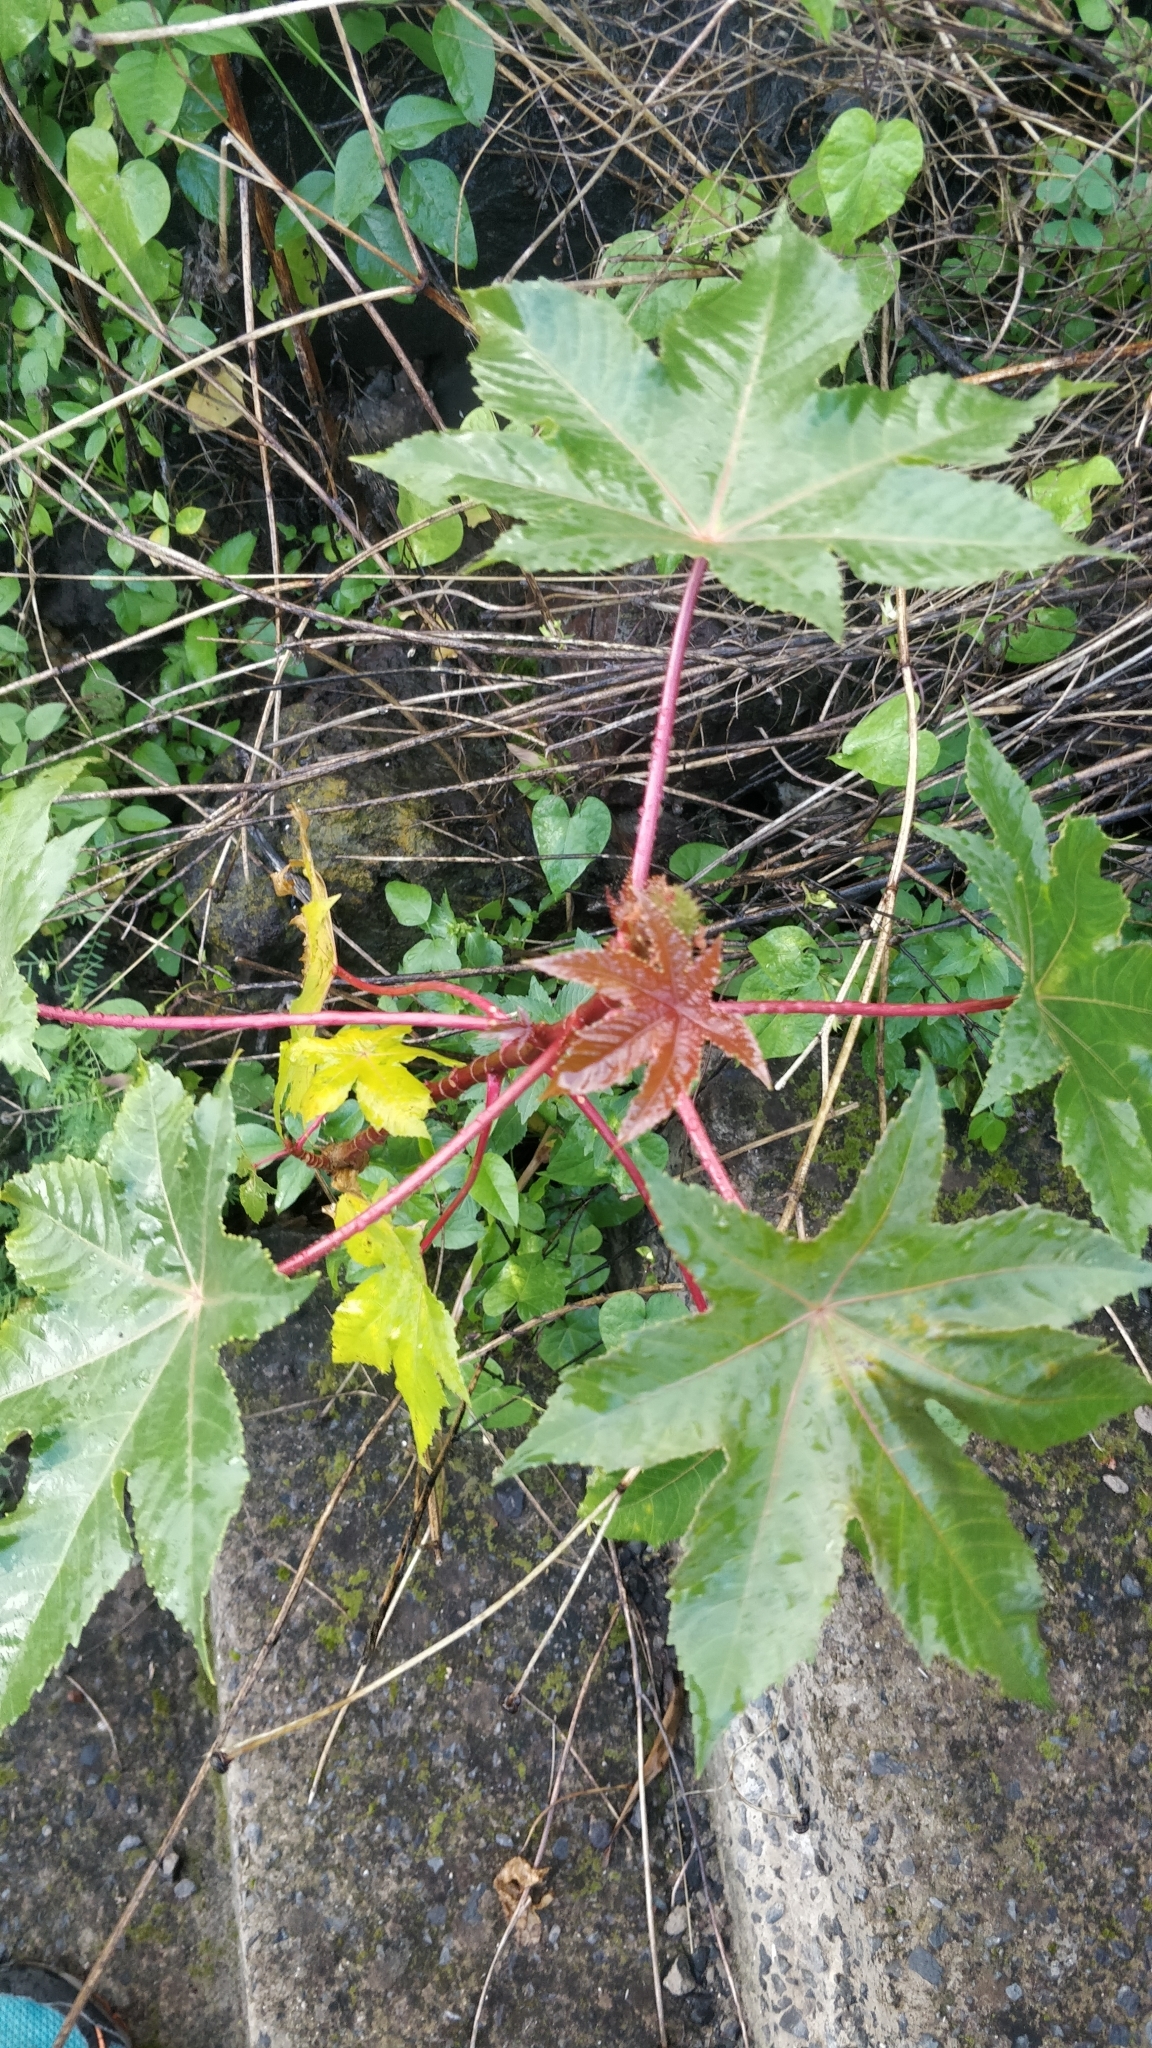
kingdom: Plantae
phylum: Tracheophyta
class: Magnoliopsida
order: Malpighiales
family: Euphorbiaceae
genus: Ricinus
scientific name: Ricinus communis
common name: Castor-oil-plant
